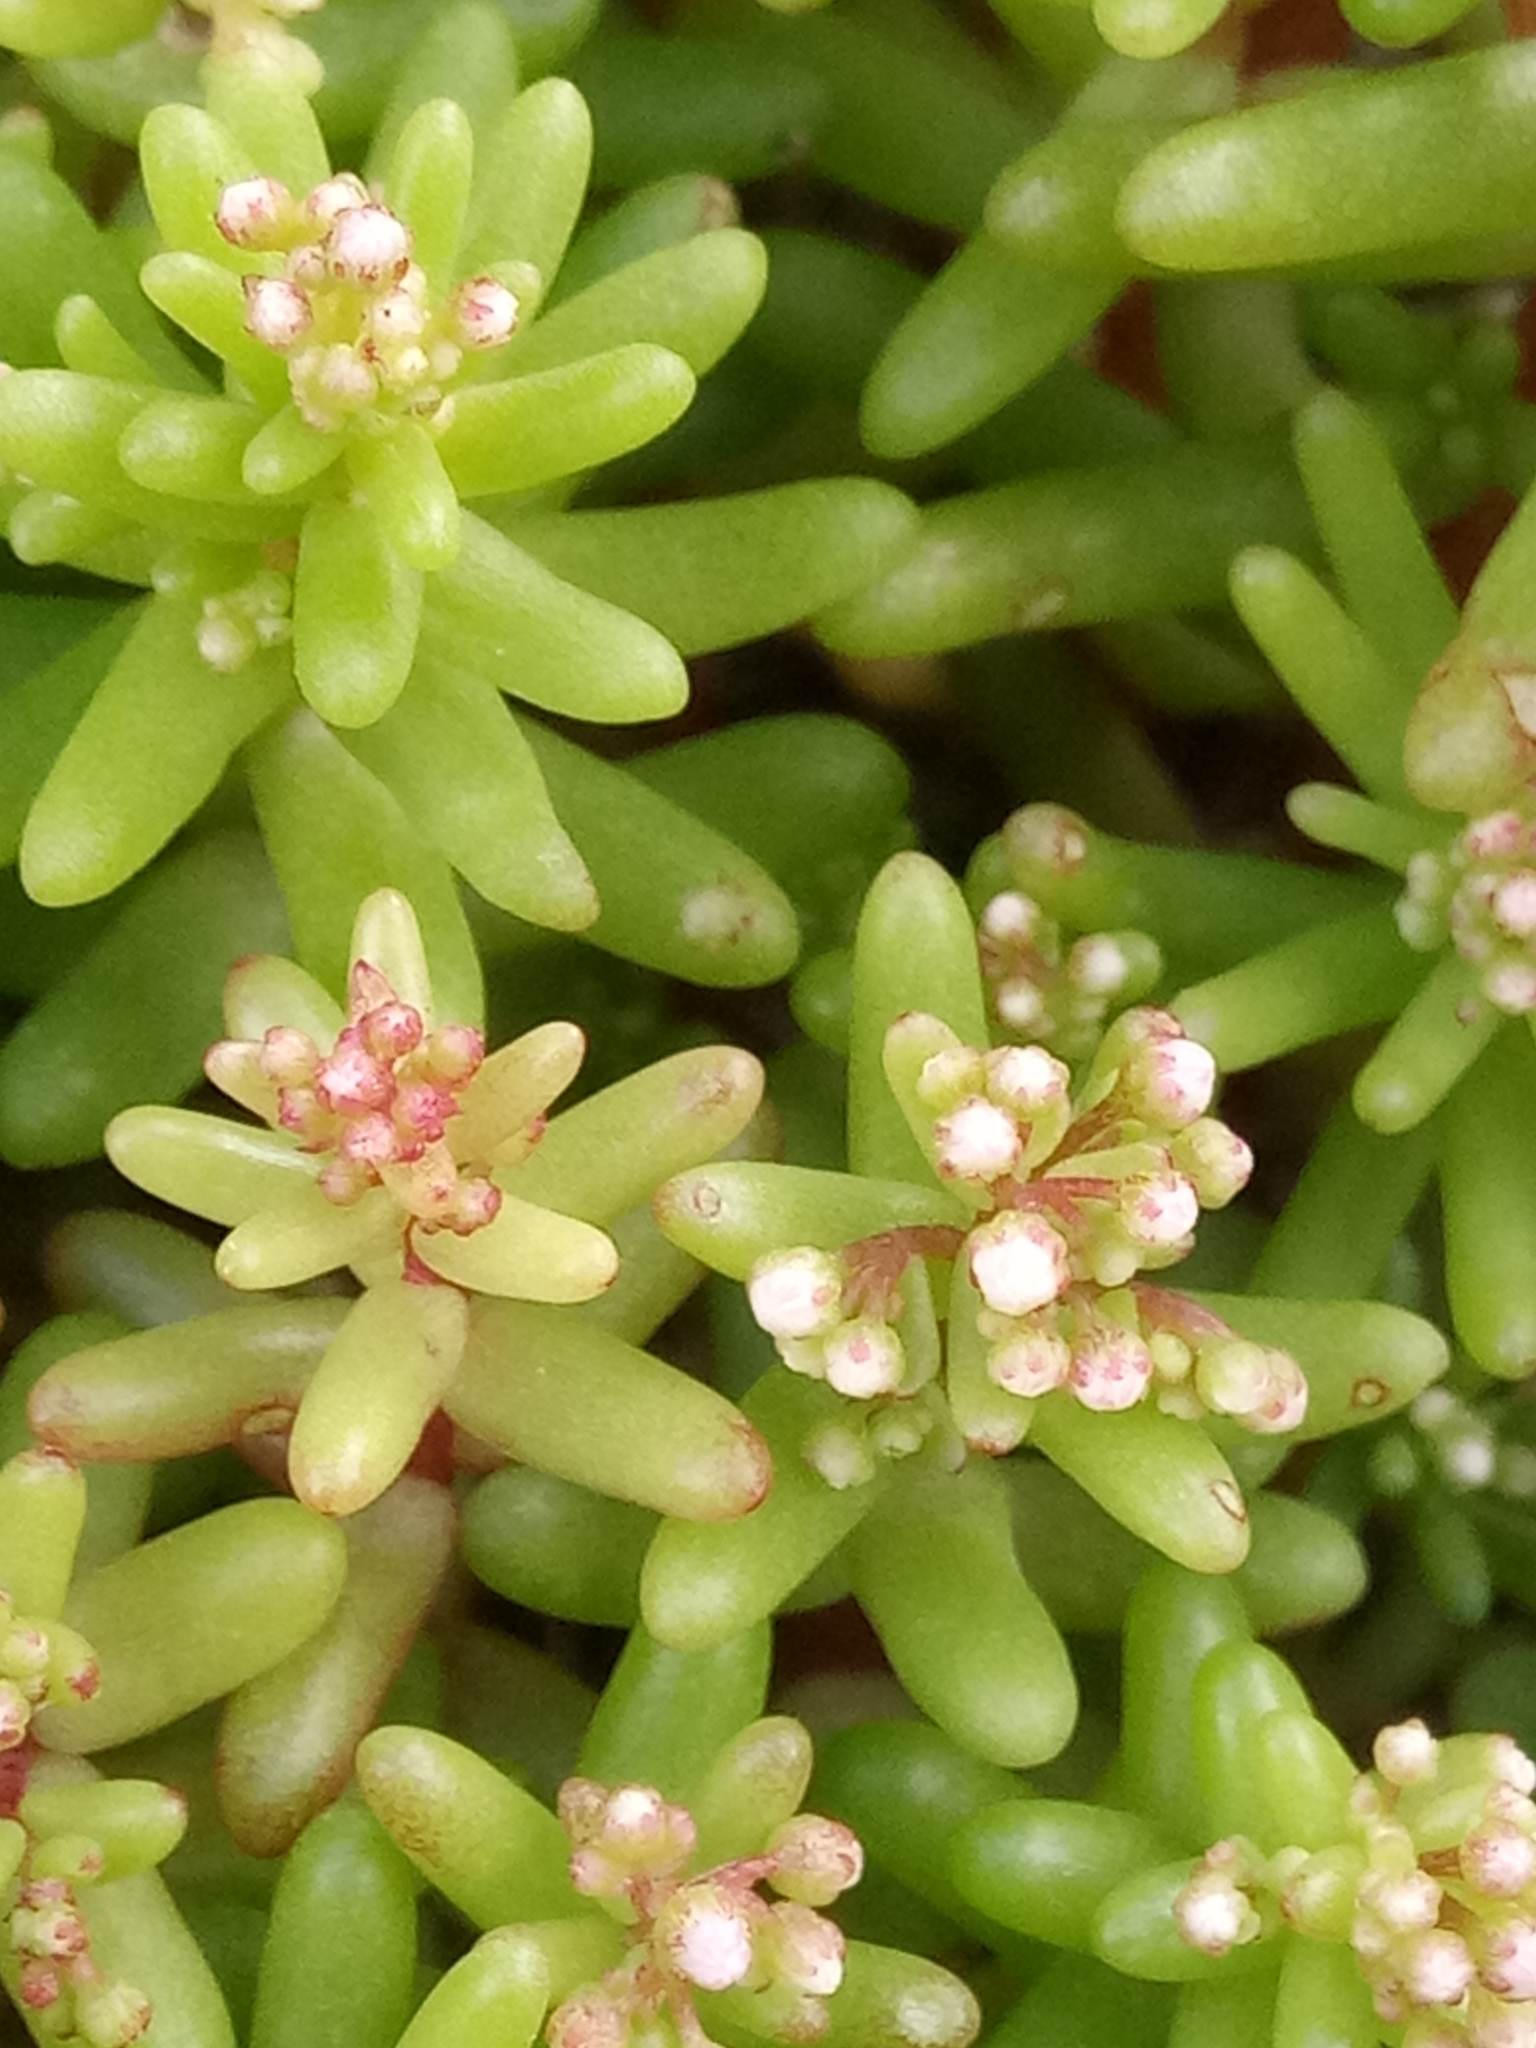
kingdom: Plantae
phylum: Tracheophyta
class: Magnoliopsida
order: Saxifragales
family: Crassulaceae
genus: Sedum
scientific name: Sedum caeruleum
